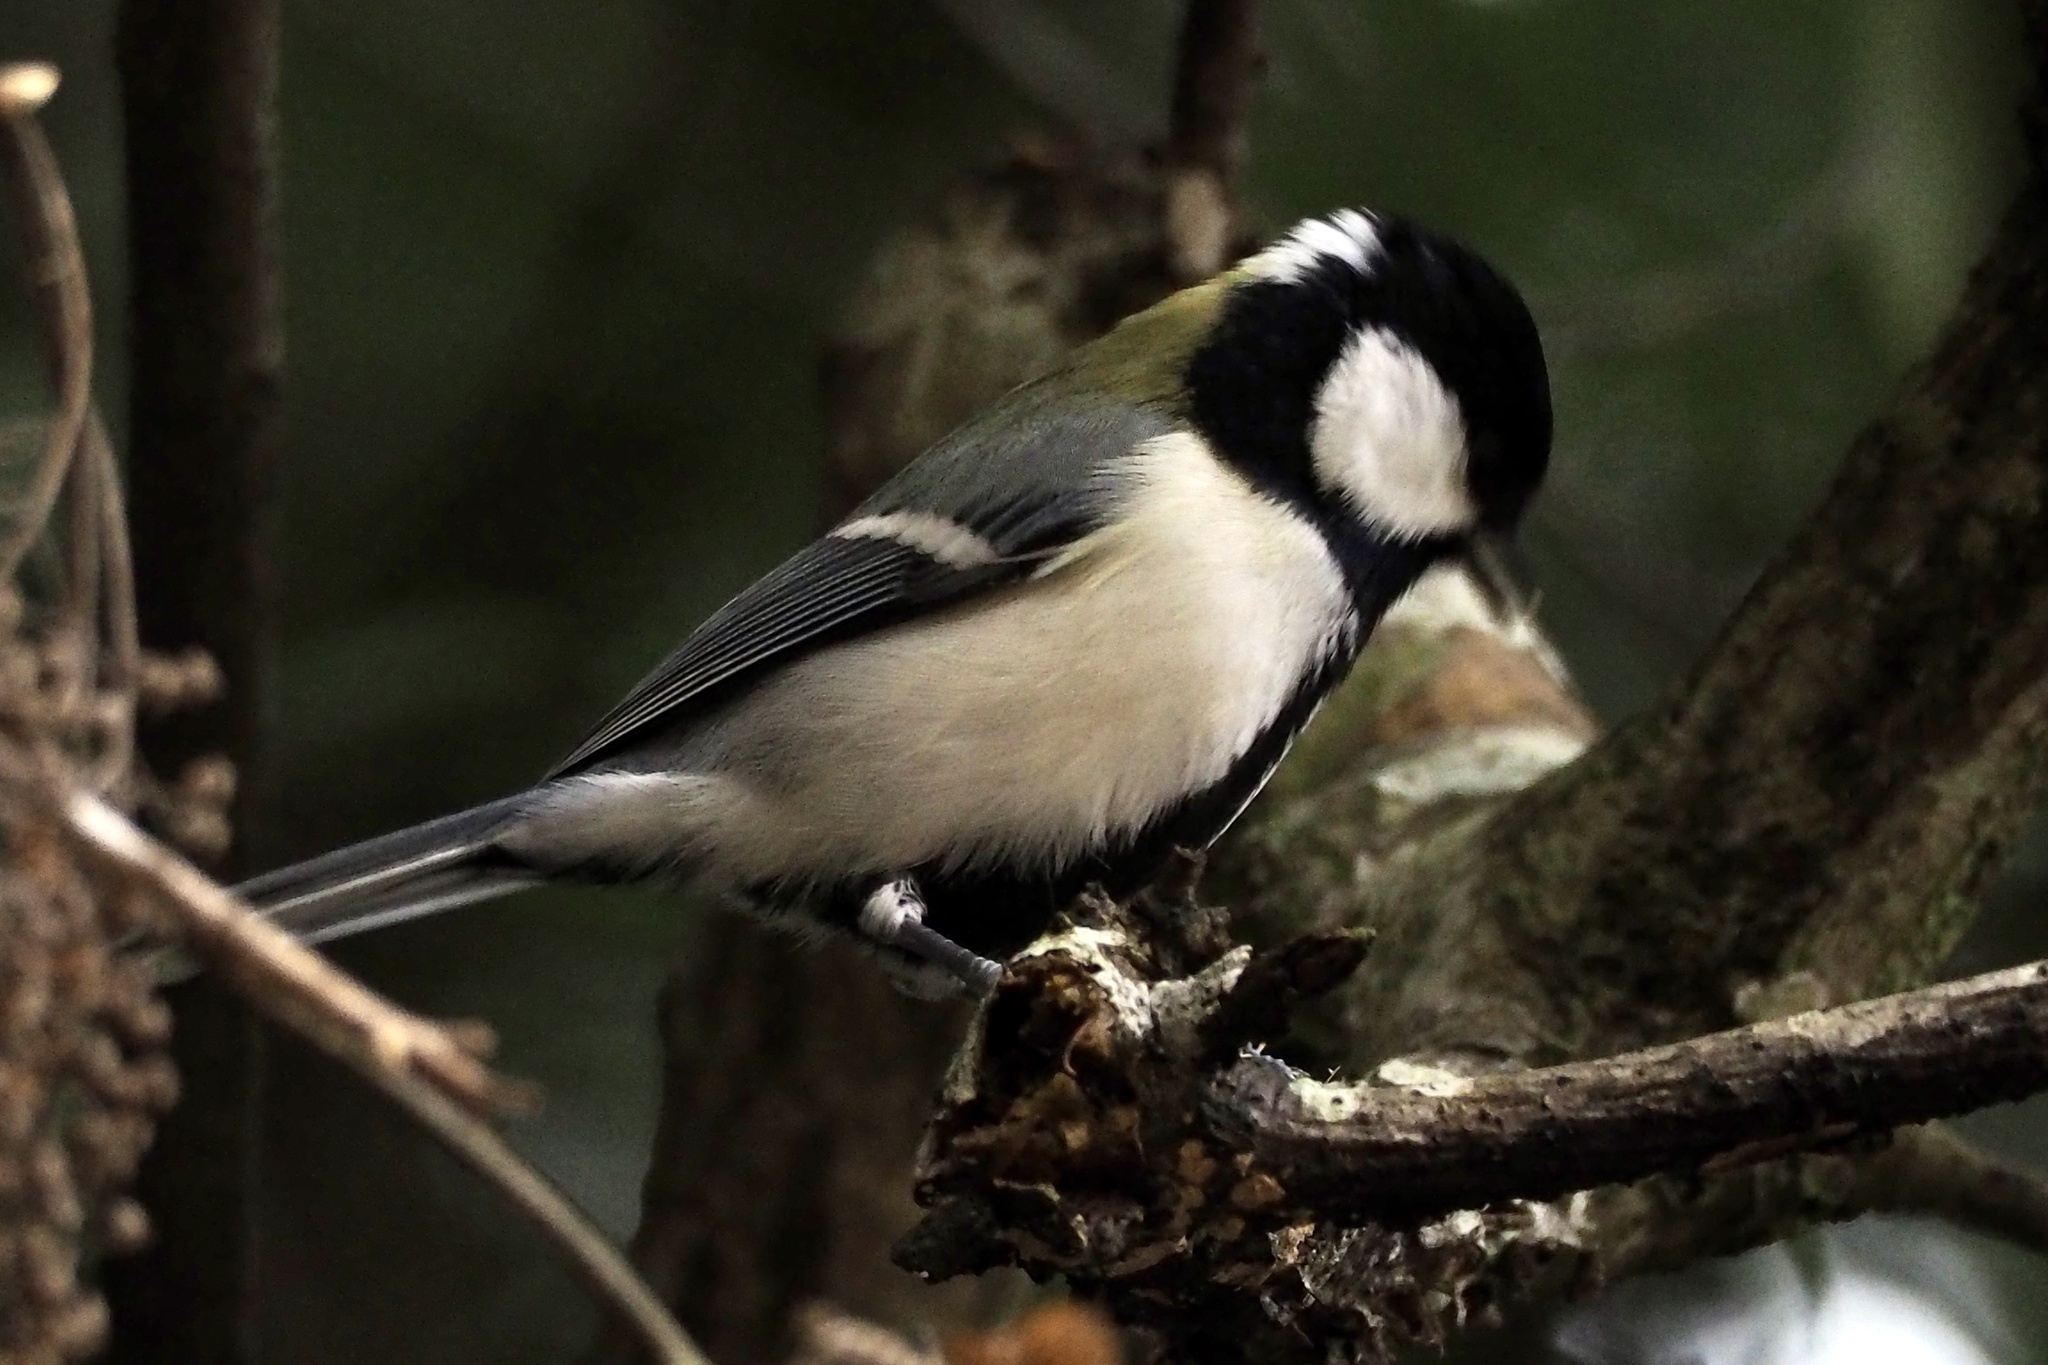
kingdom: Animalia
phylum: Chordata
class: Aves
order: Passeriformes
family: Paridae
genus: Parus
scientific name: Parus minor
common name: Japanese tit
